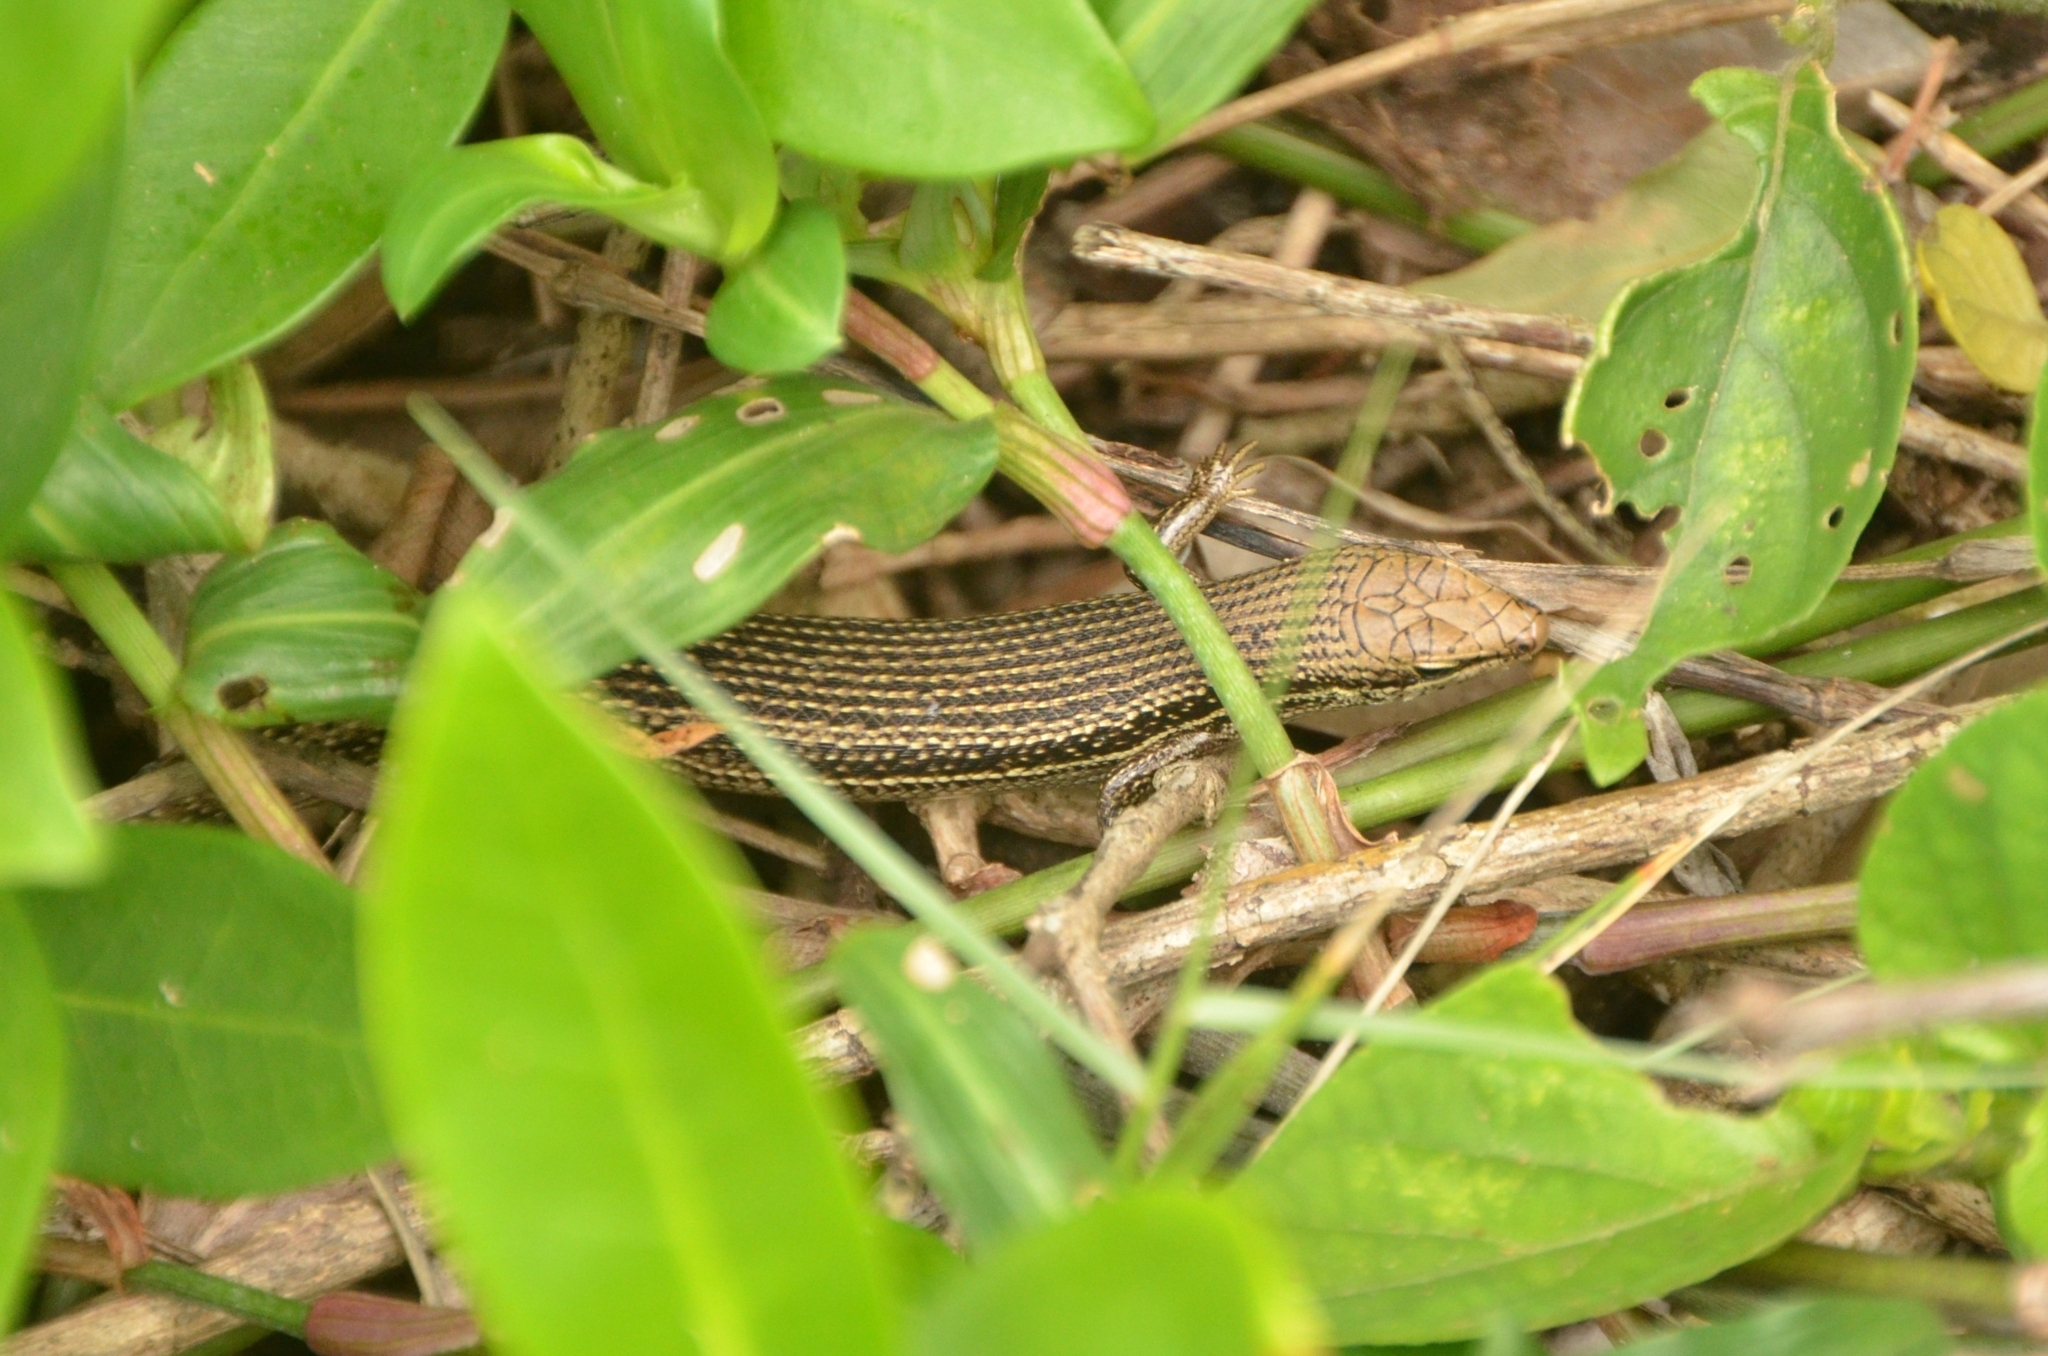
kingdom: Animalia
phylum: Chordata
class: Squamata
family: Scincidae
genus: Trachylepis
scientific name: Trachylepis depressa
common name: Eastern coastal skink
